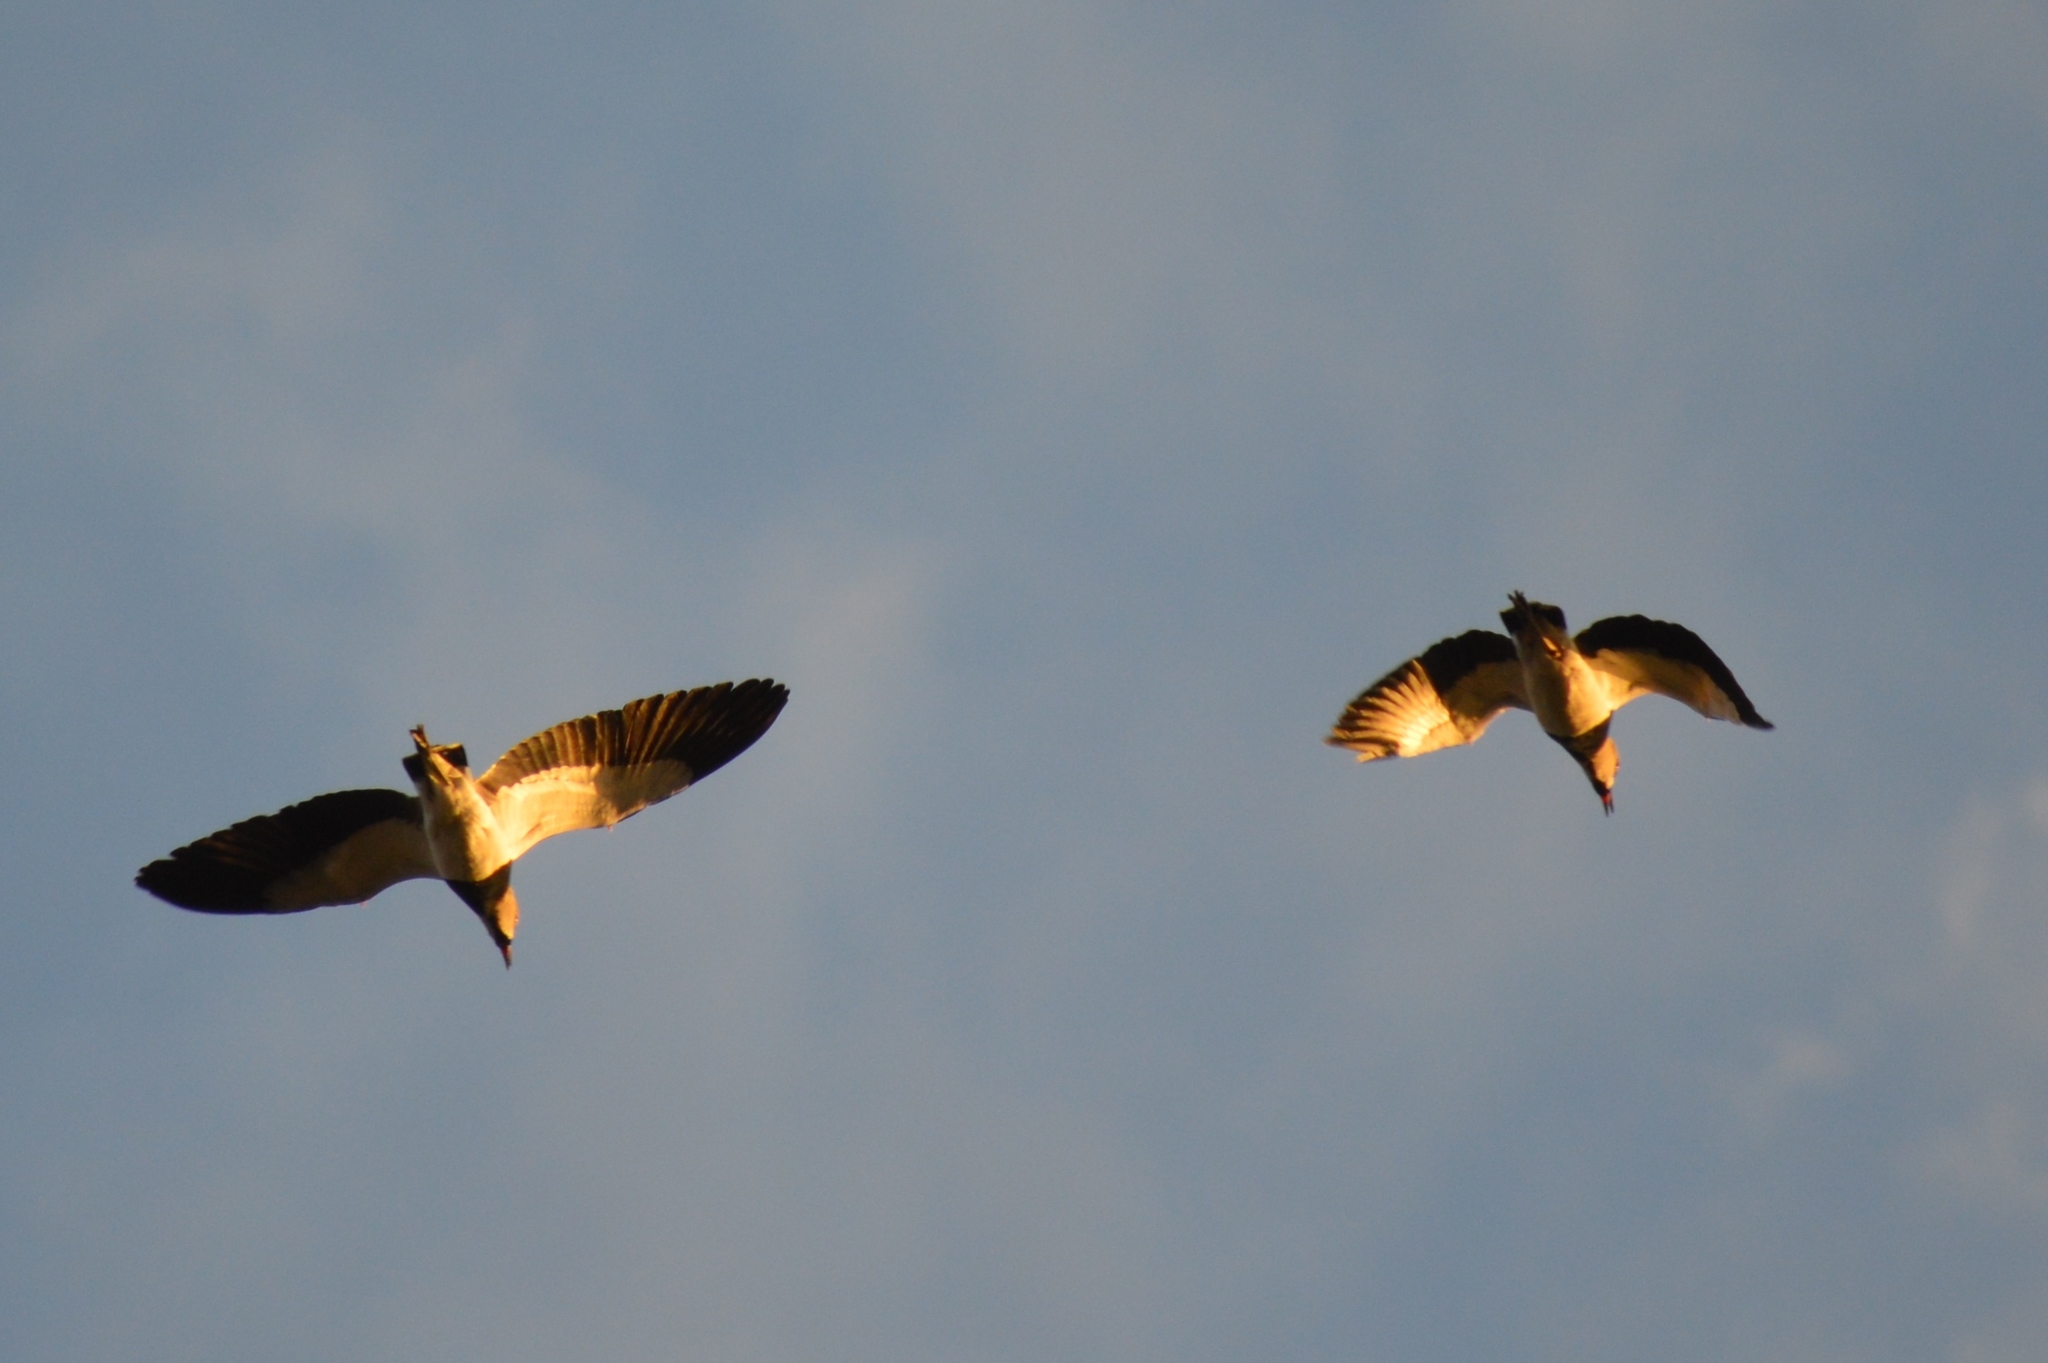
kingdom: Animalia
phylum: Chordata
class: Aves
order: Charadriiformes
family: Charadriidae
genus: Vanellus
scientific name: Vanellus chilensis
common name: Southern lapwing
